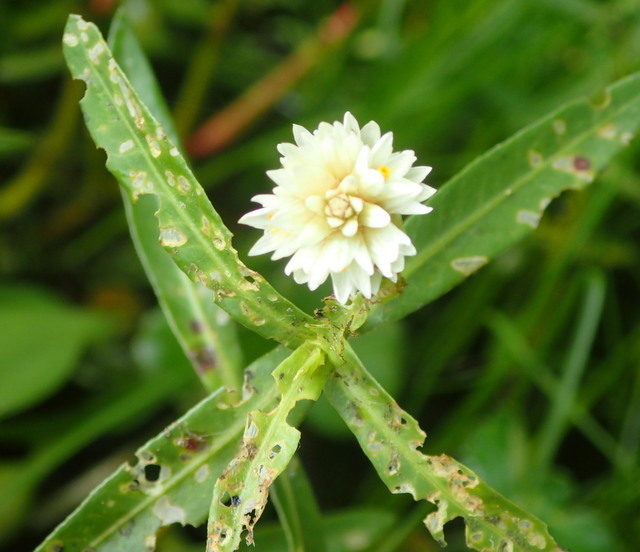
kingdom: Plantae
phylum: Tracheophyta
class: Magnoliopsida
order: Caryophyllales
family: Amaranthaceae
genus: Alternanthera
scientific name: Alternanthera philoxeroides
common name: Alligatorweed
